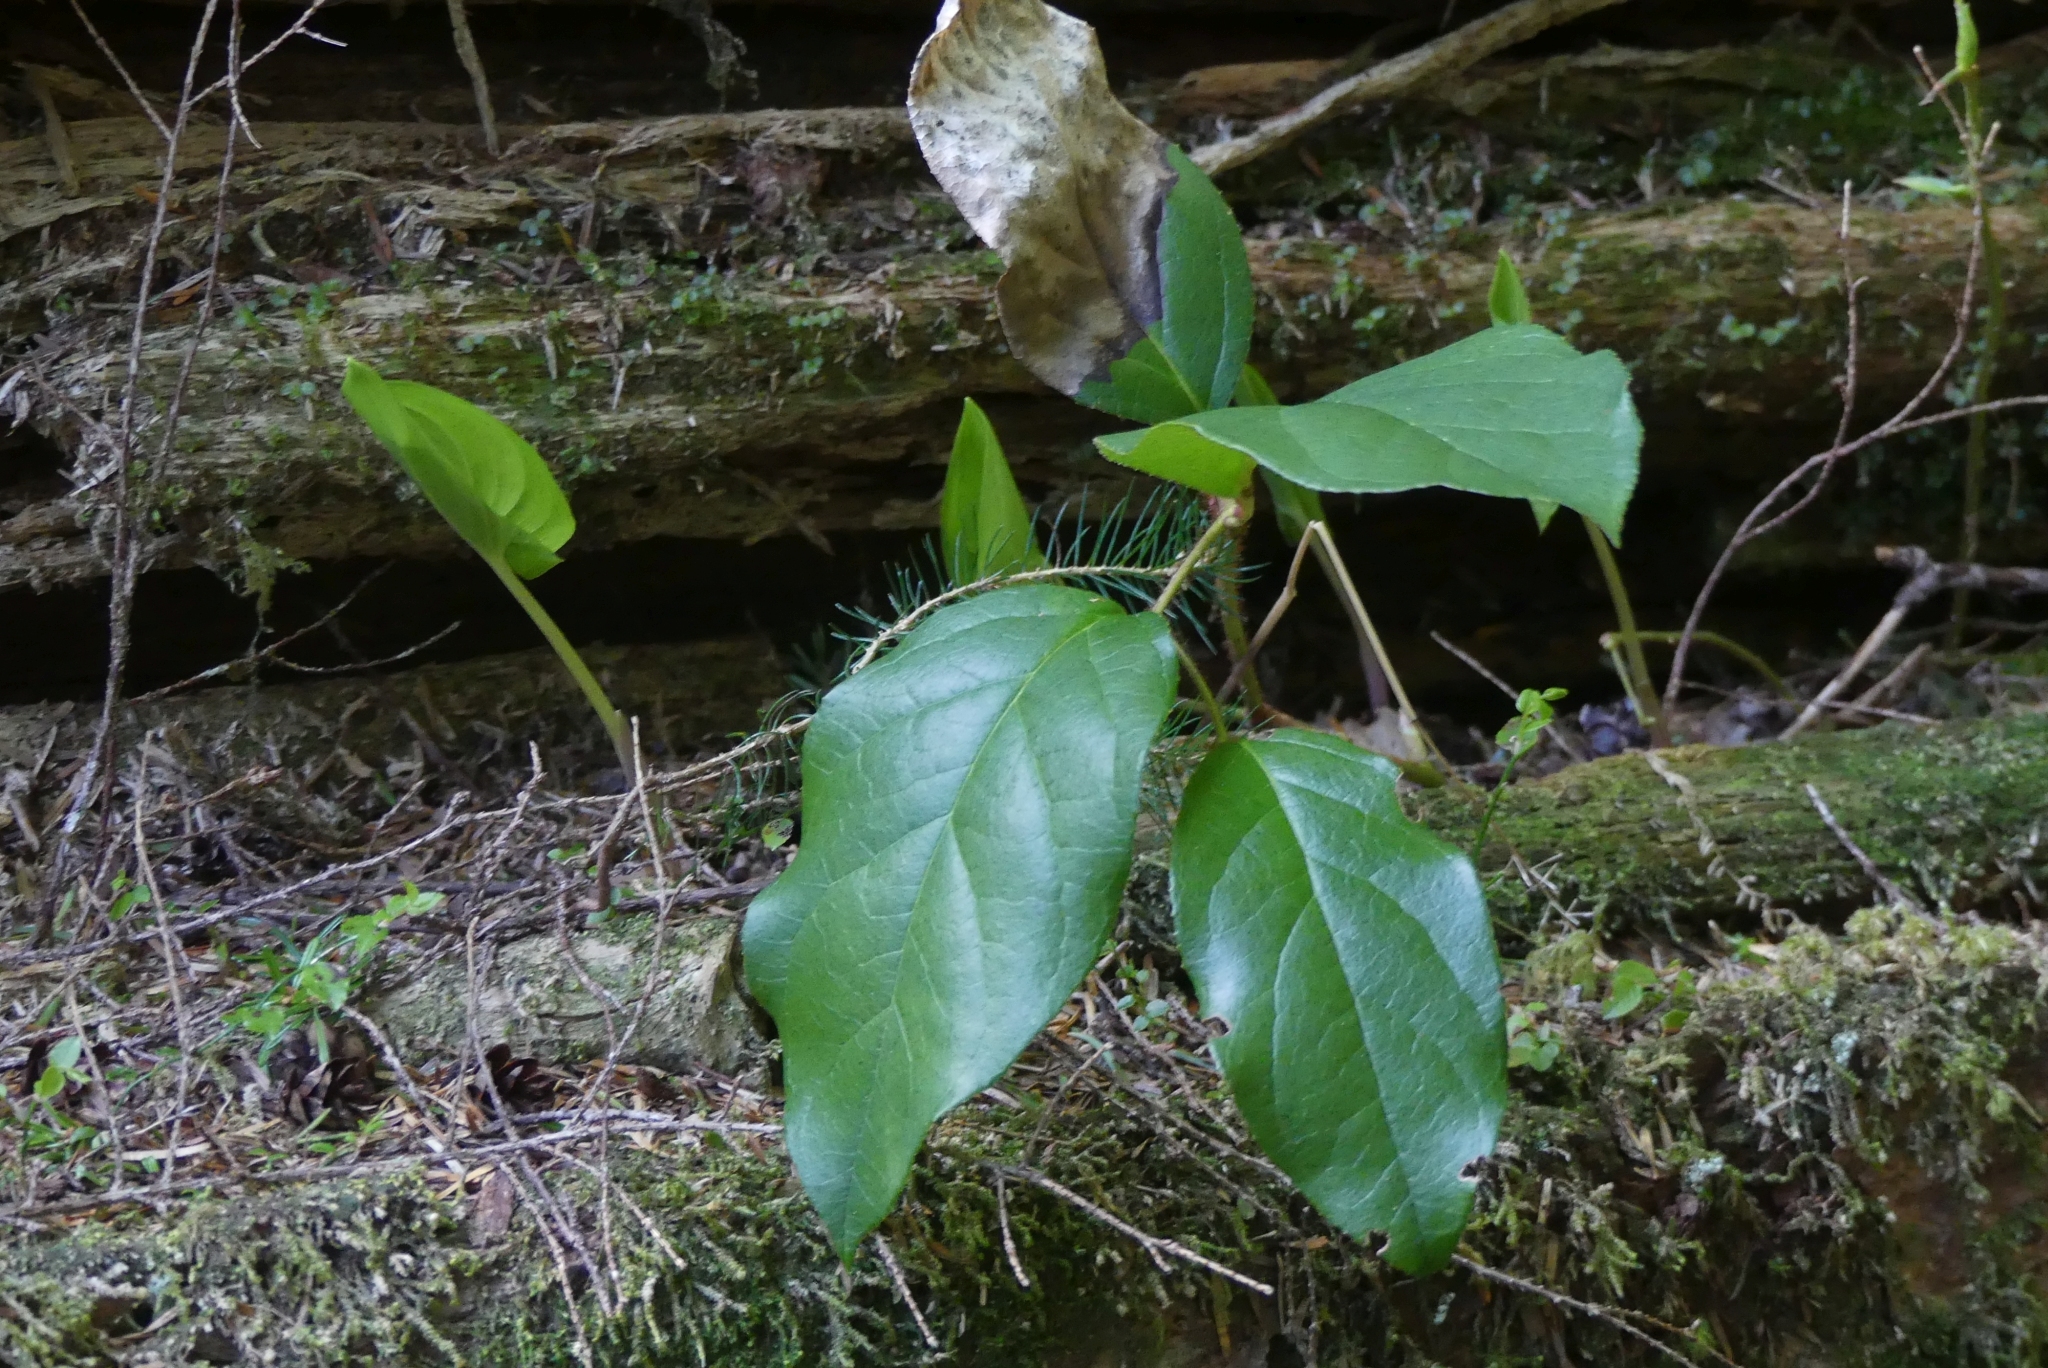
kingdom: Plantae
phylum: Tracheophyta
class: Magnoliopsida
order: Ericales
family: Ericaceae
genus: Gaultheria
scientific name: Gaultheria shallon
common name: Shallon
